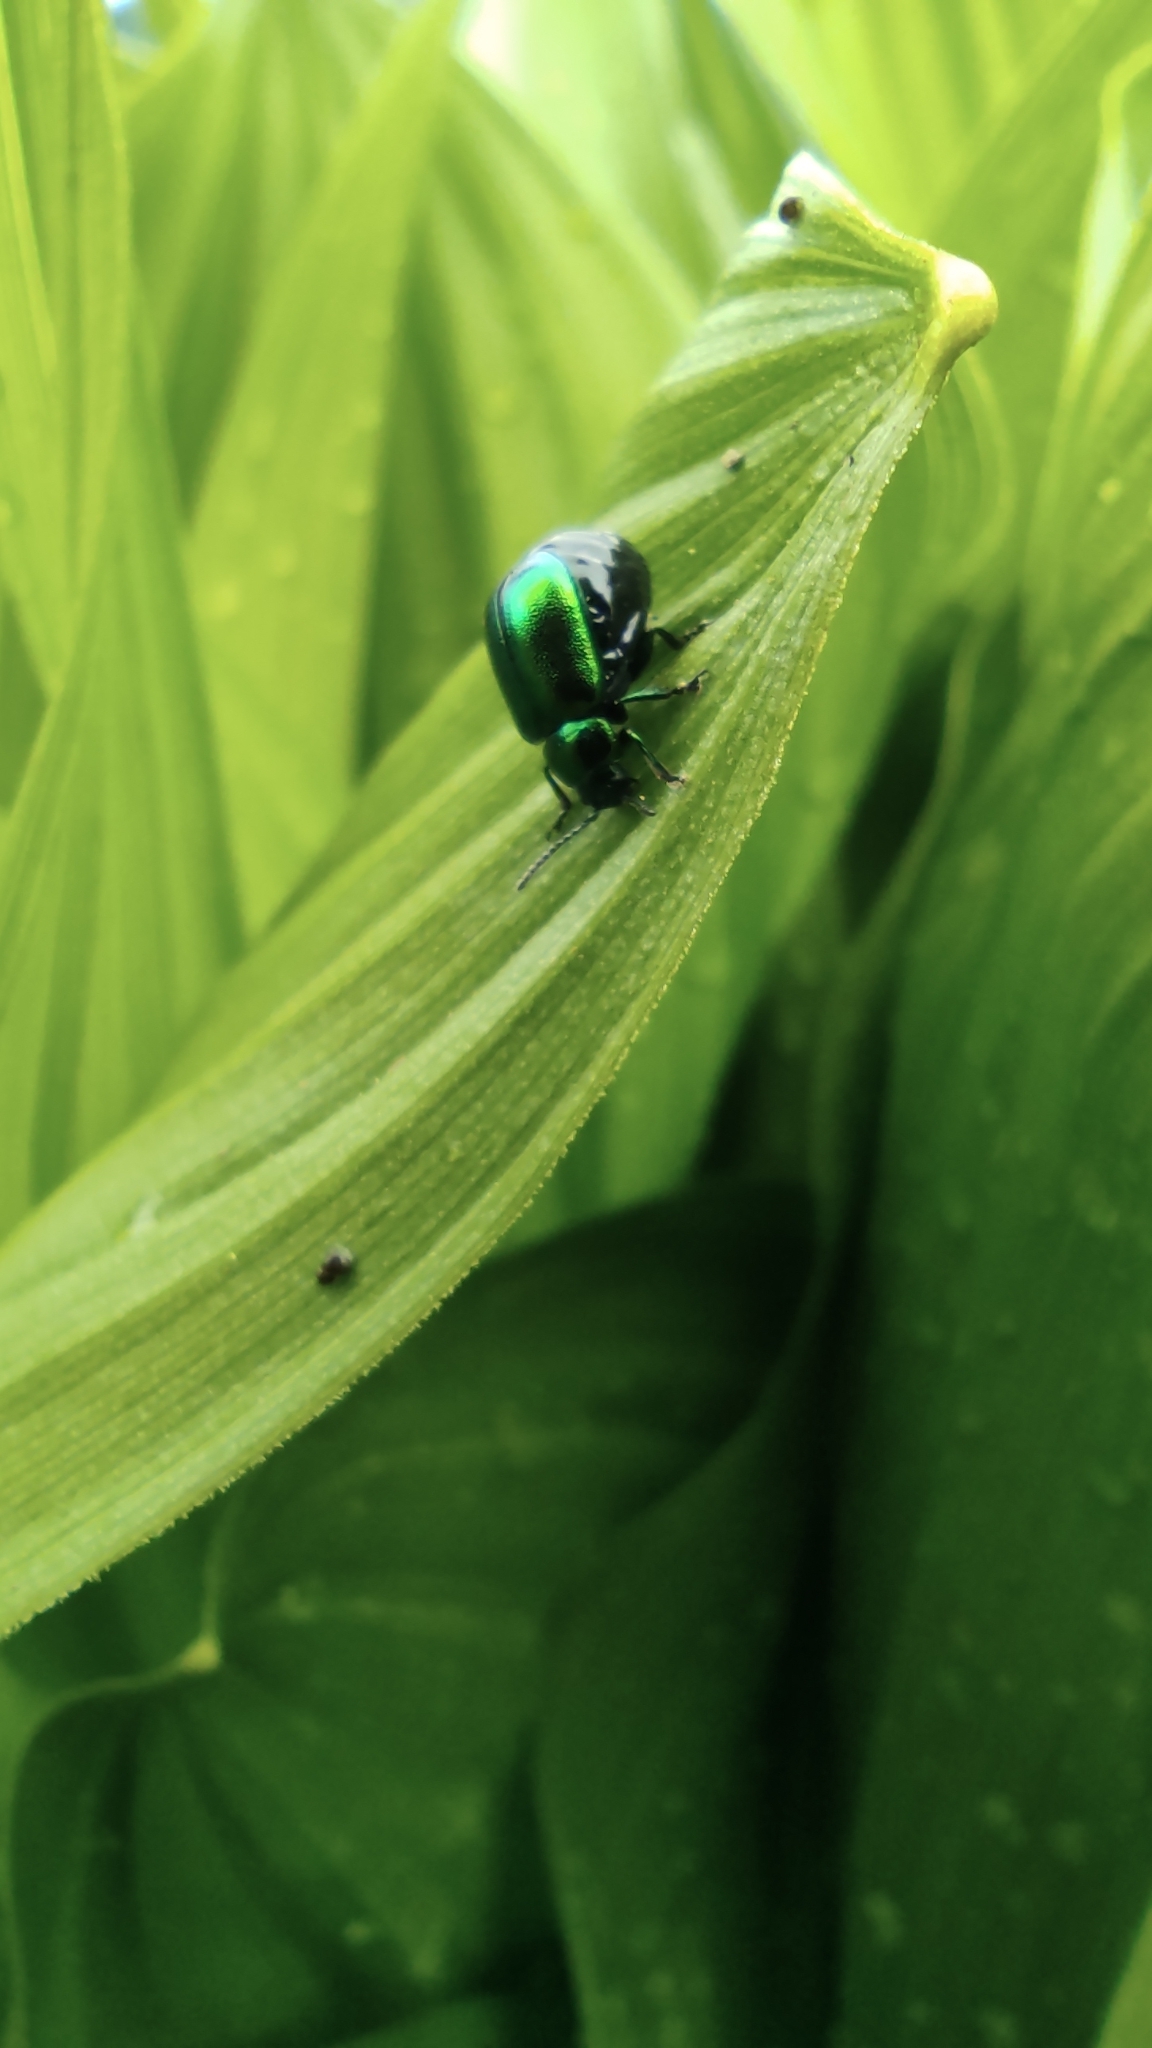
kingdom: Animalia
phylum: Arthropoda
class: Insecta
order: Coleoptera
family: Chrysomelidae
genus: Gastrophysa
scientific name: Gastrophysa viridula
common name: Green dock beetle
